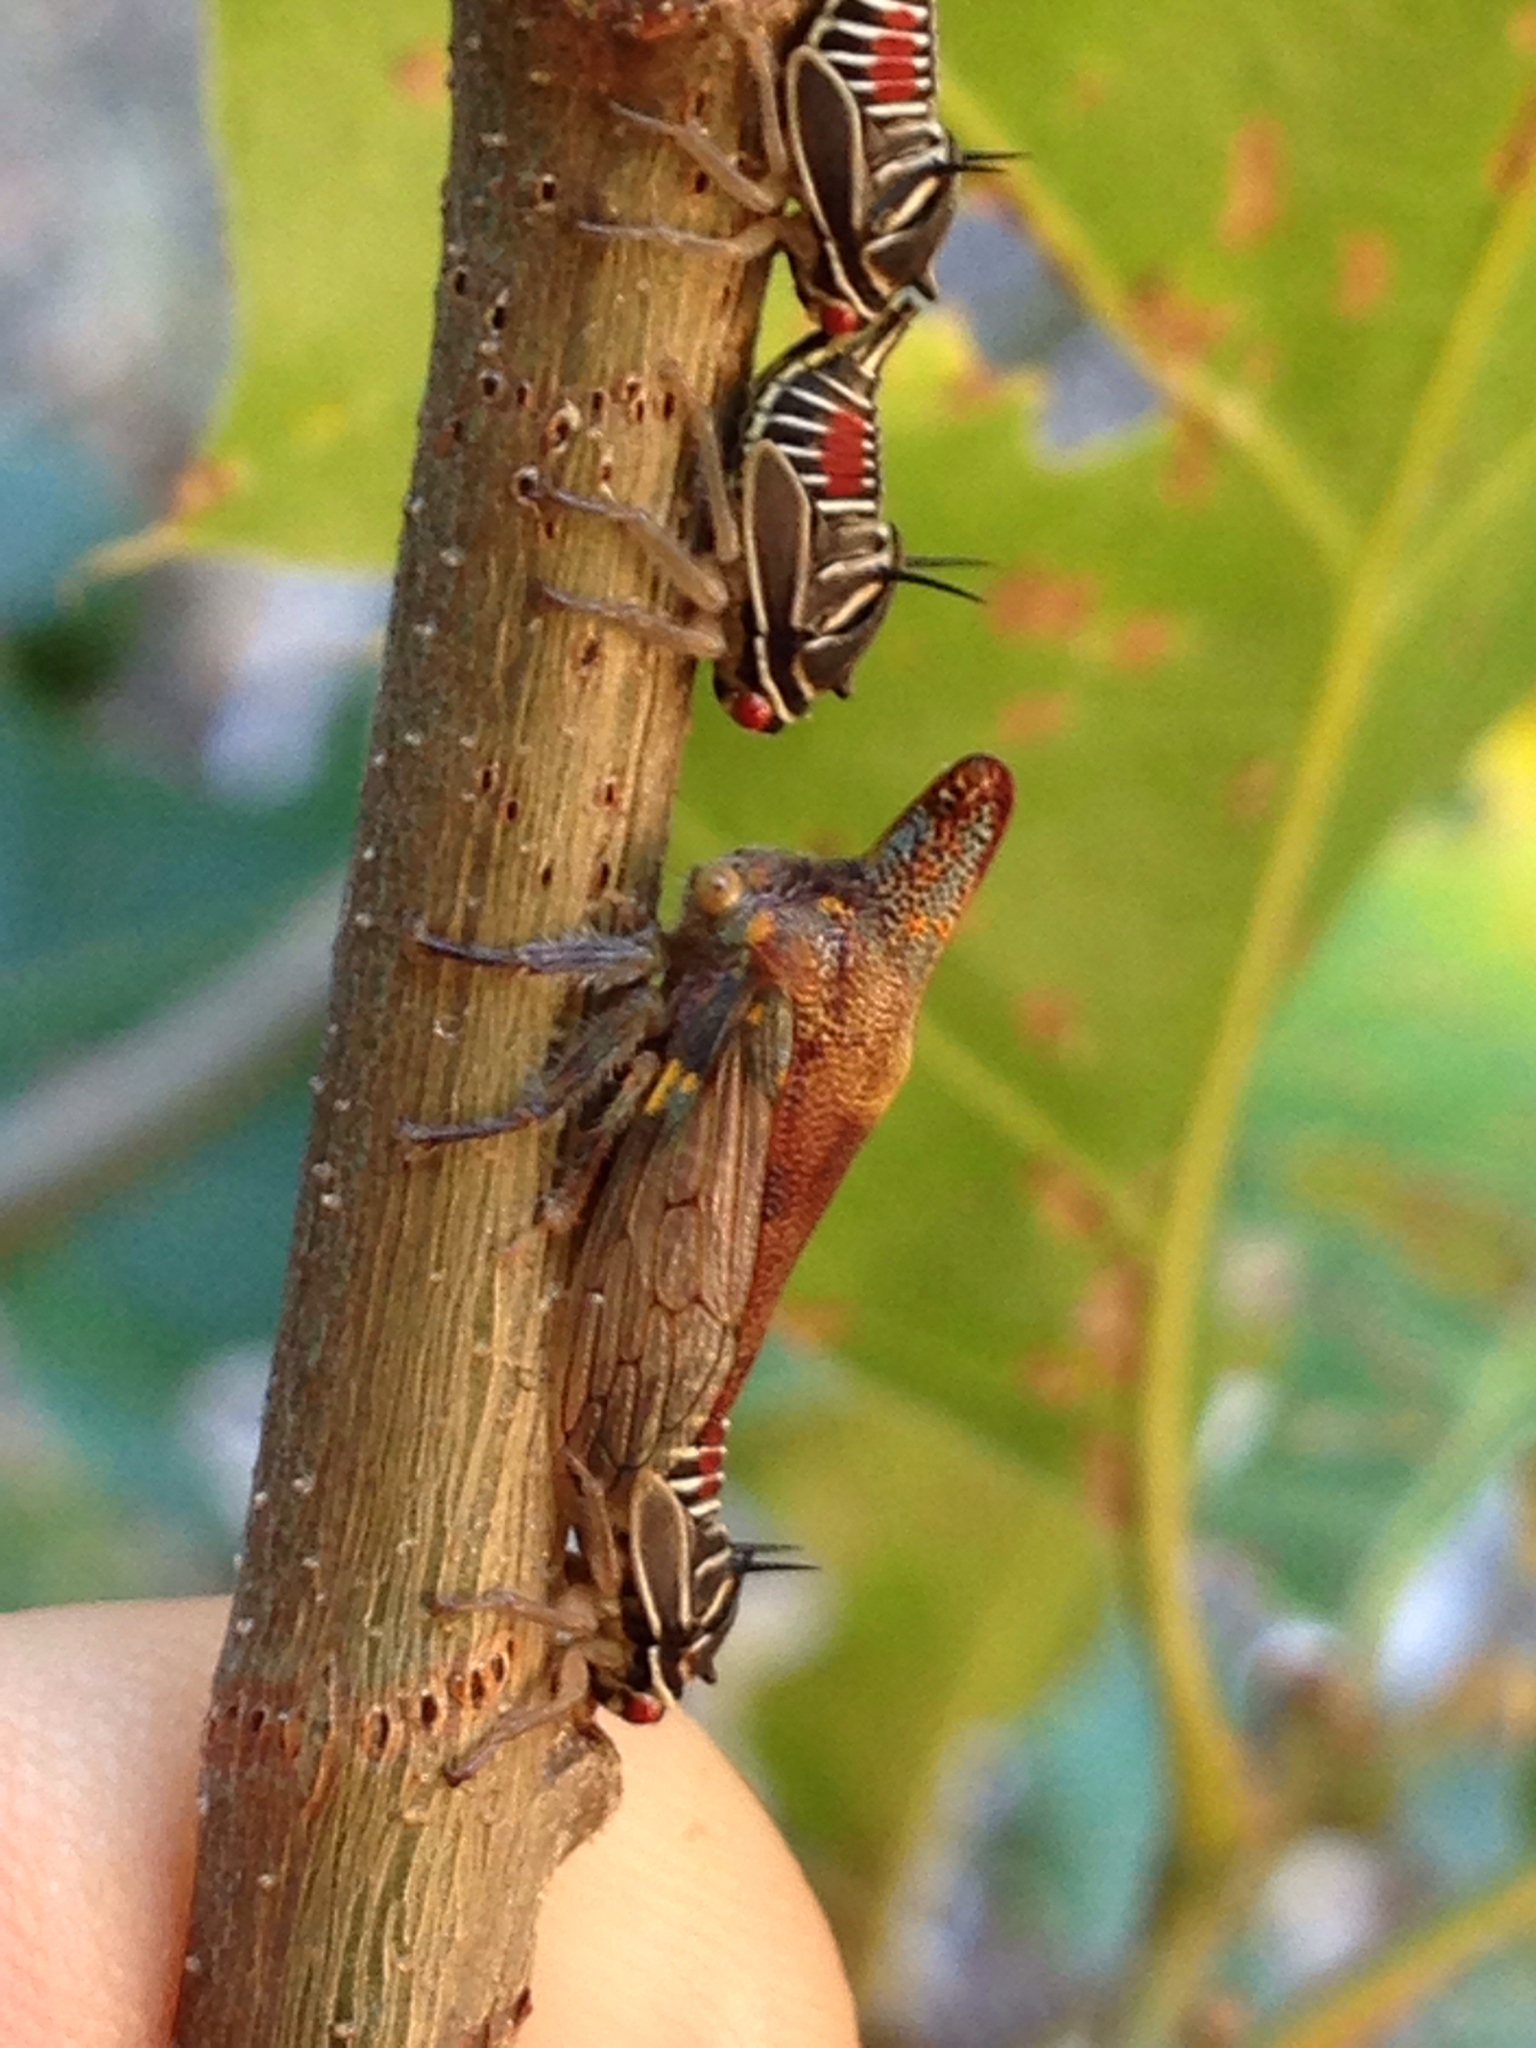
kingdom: Animalia
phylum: Arthropoda
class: Insecta
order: Hemiptera
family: Membracidae
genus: Platycotis
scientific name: Platycotis vittatus
